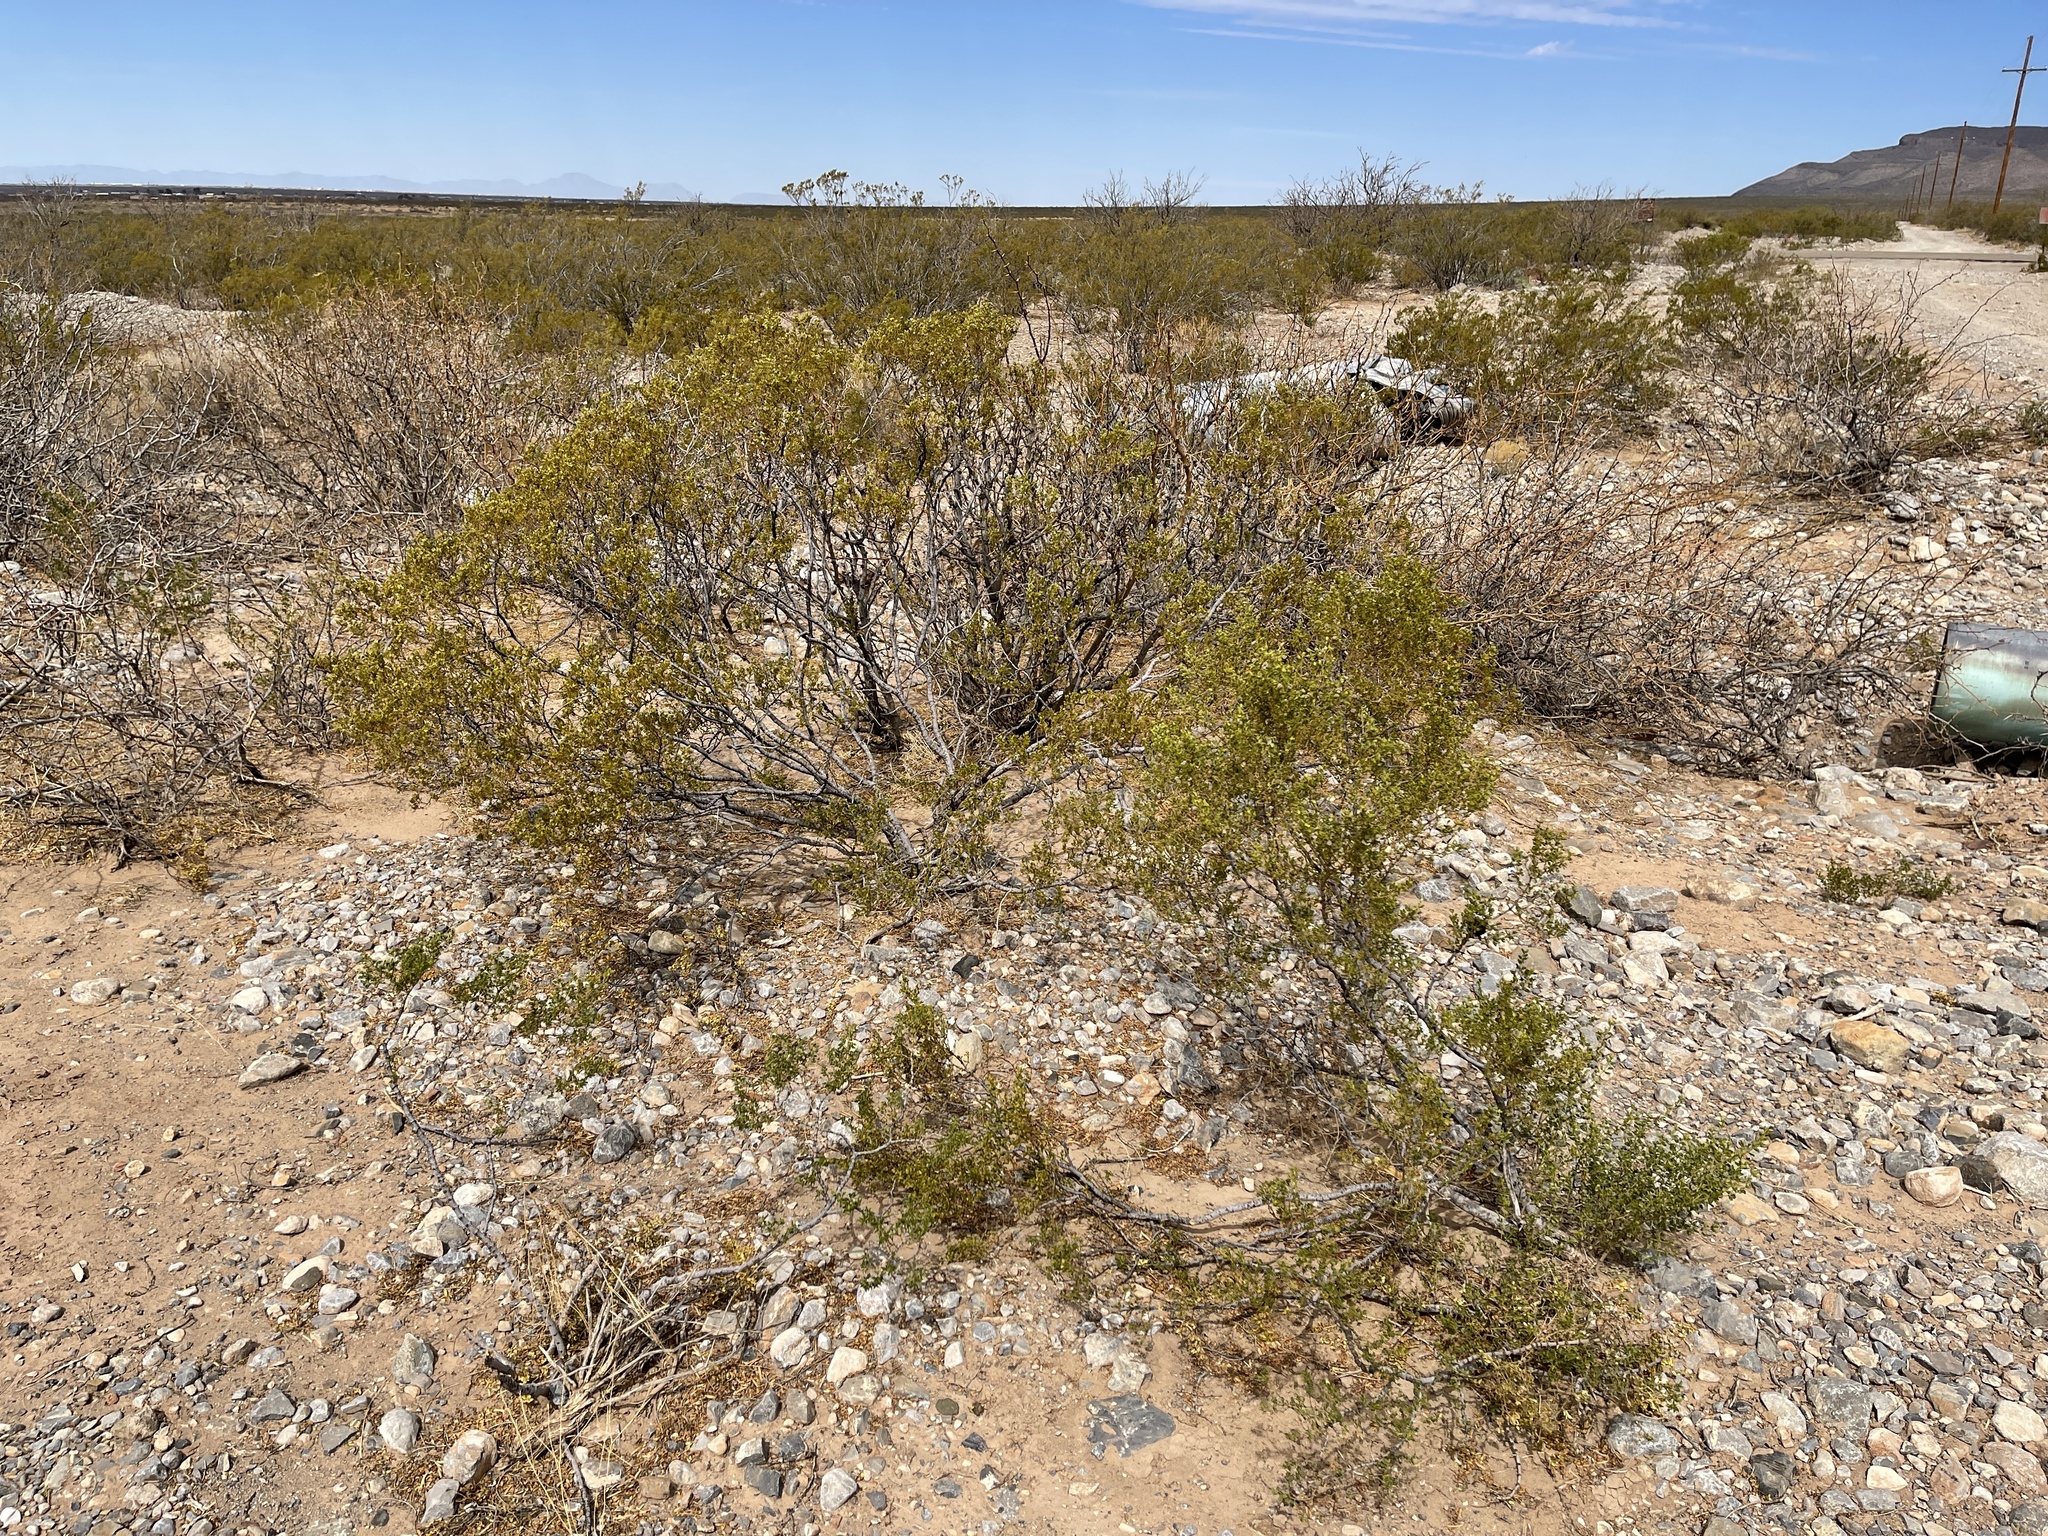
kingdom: Plantae
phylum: Tracheophyta
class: Magnoliopsida
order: Zygophyllales
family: Zygophyllaceae
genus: Larrea
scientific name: Larrea tridentata
